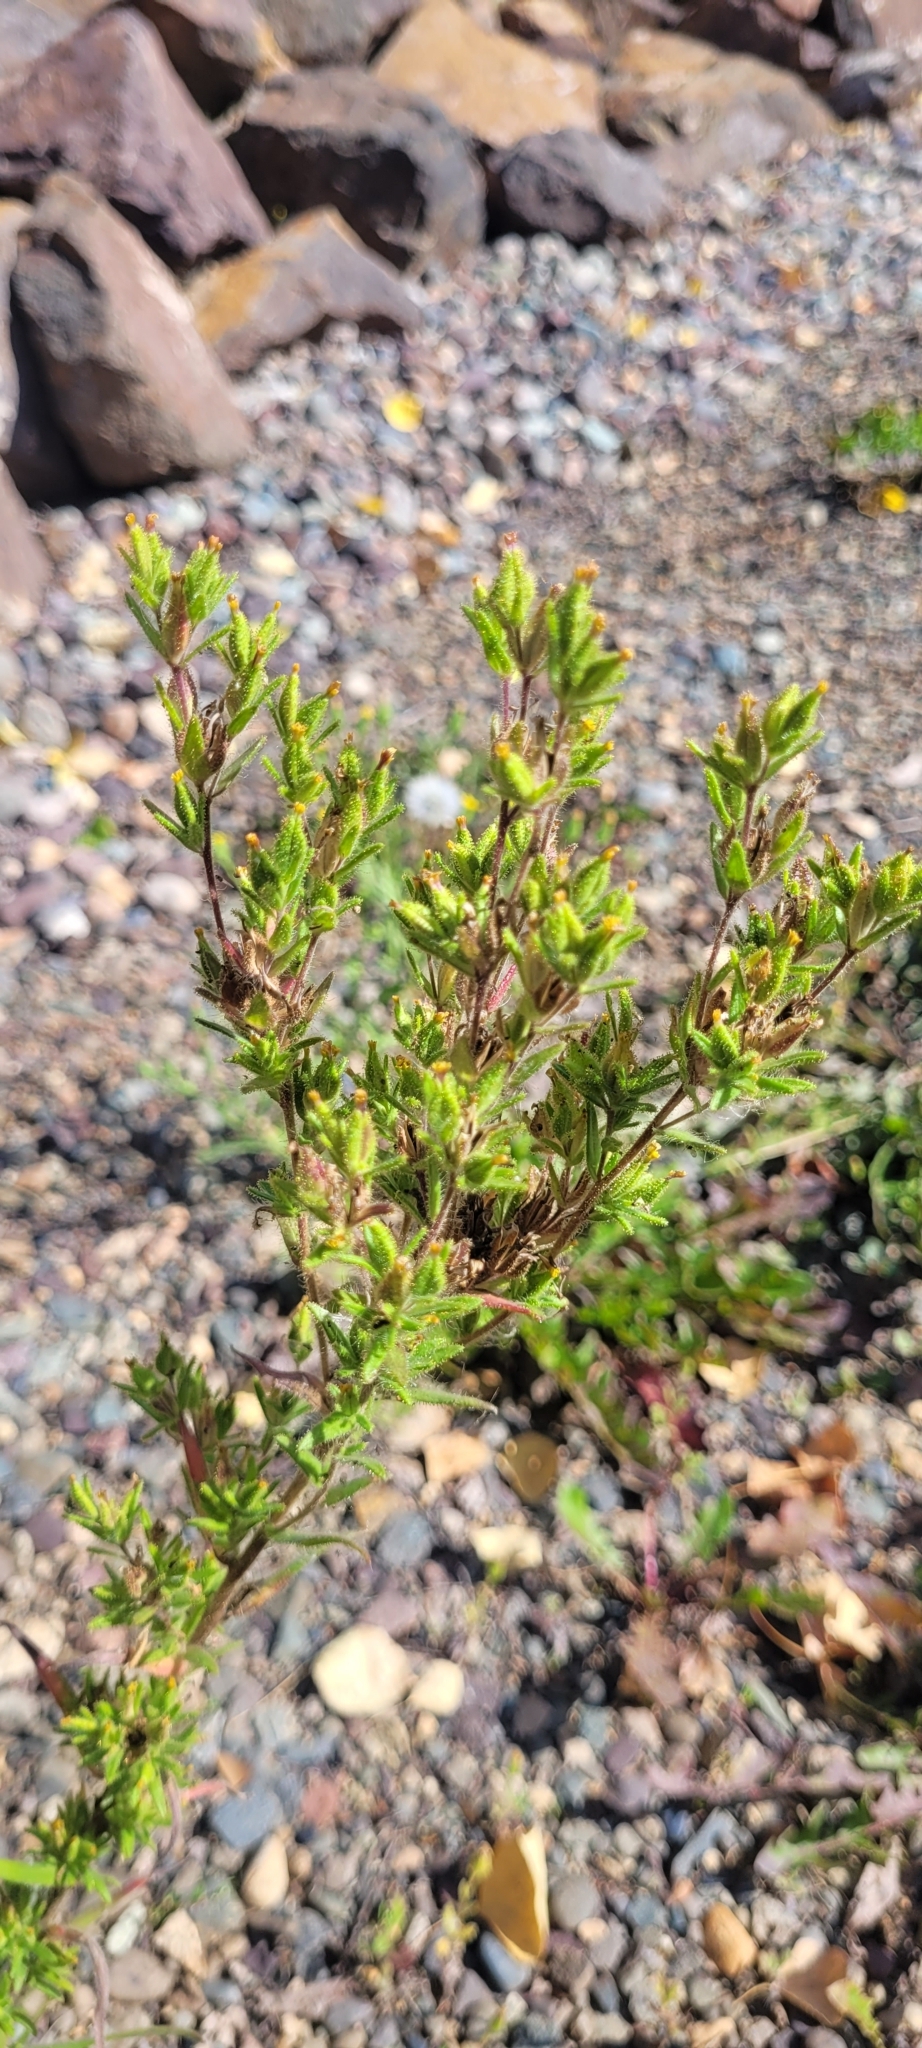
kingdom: Plantae
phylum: Tracheophyta
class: Magnoliopsida
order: Asterales
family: Asteraceae
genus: Madia
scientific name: Madia glomerata
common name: Mountain tarweed
